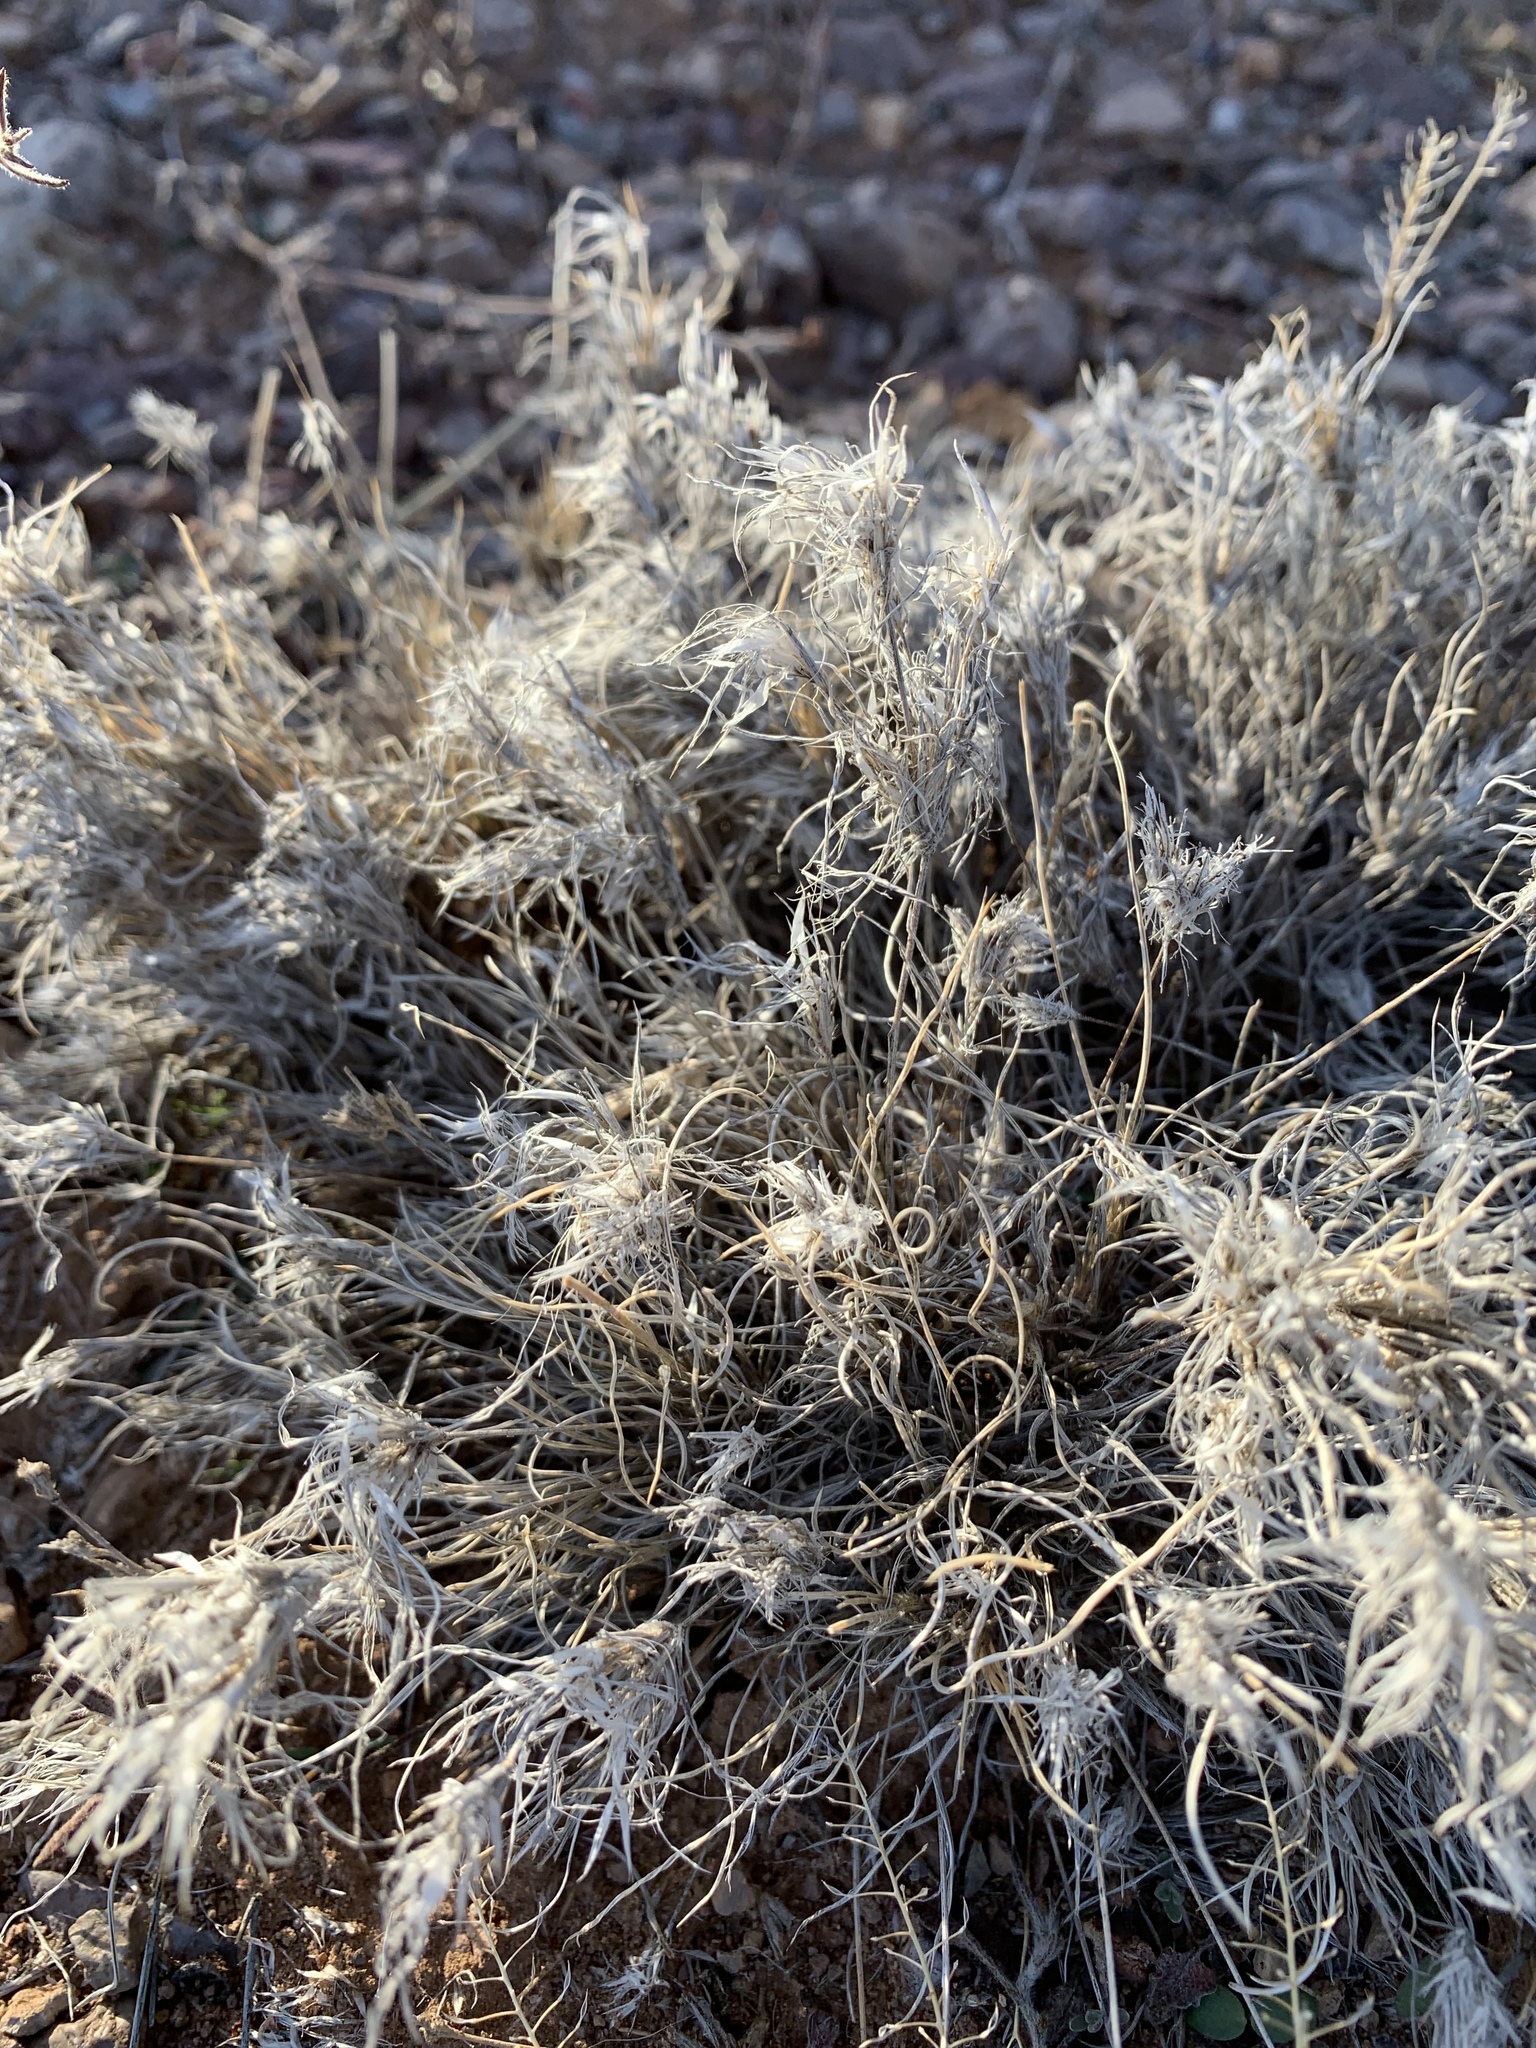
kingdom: Plantae
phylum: Tracheophyta
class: Liliopsida
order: Poales
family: Poaceae
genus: Dasyochloa
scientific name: Dasyochloa pulchella
